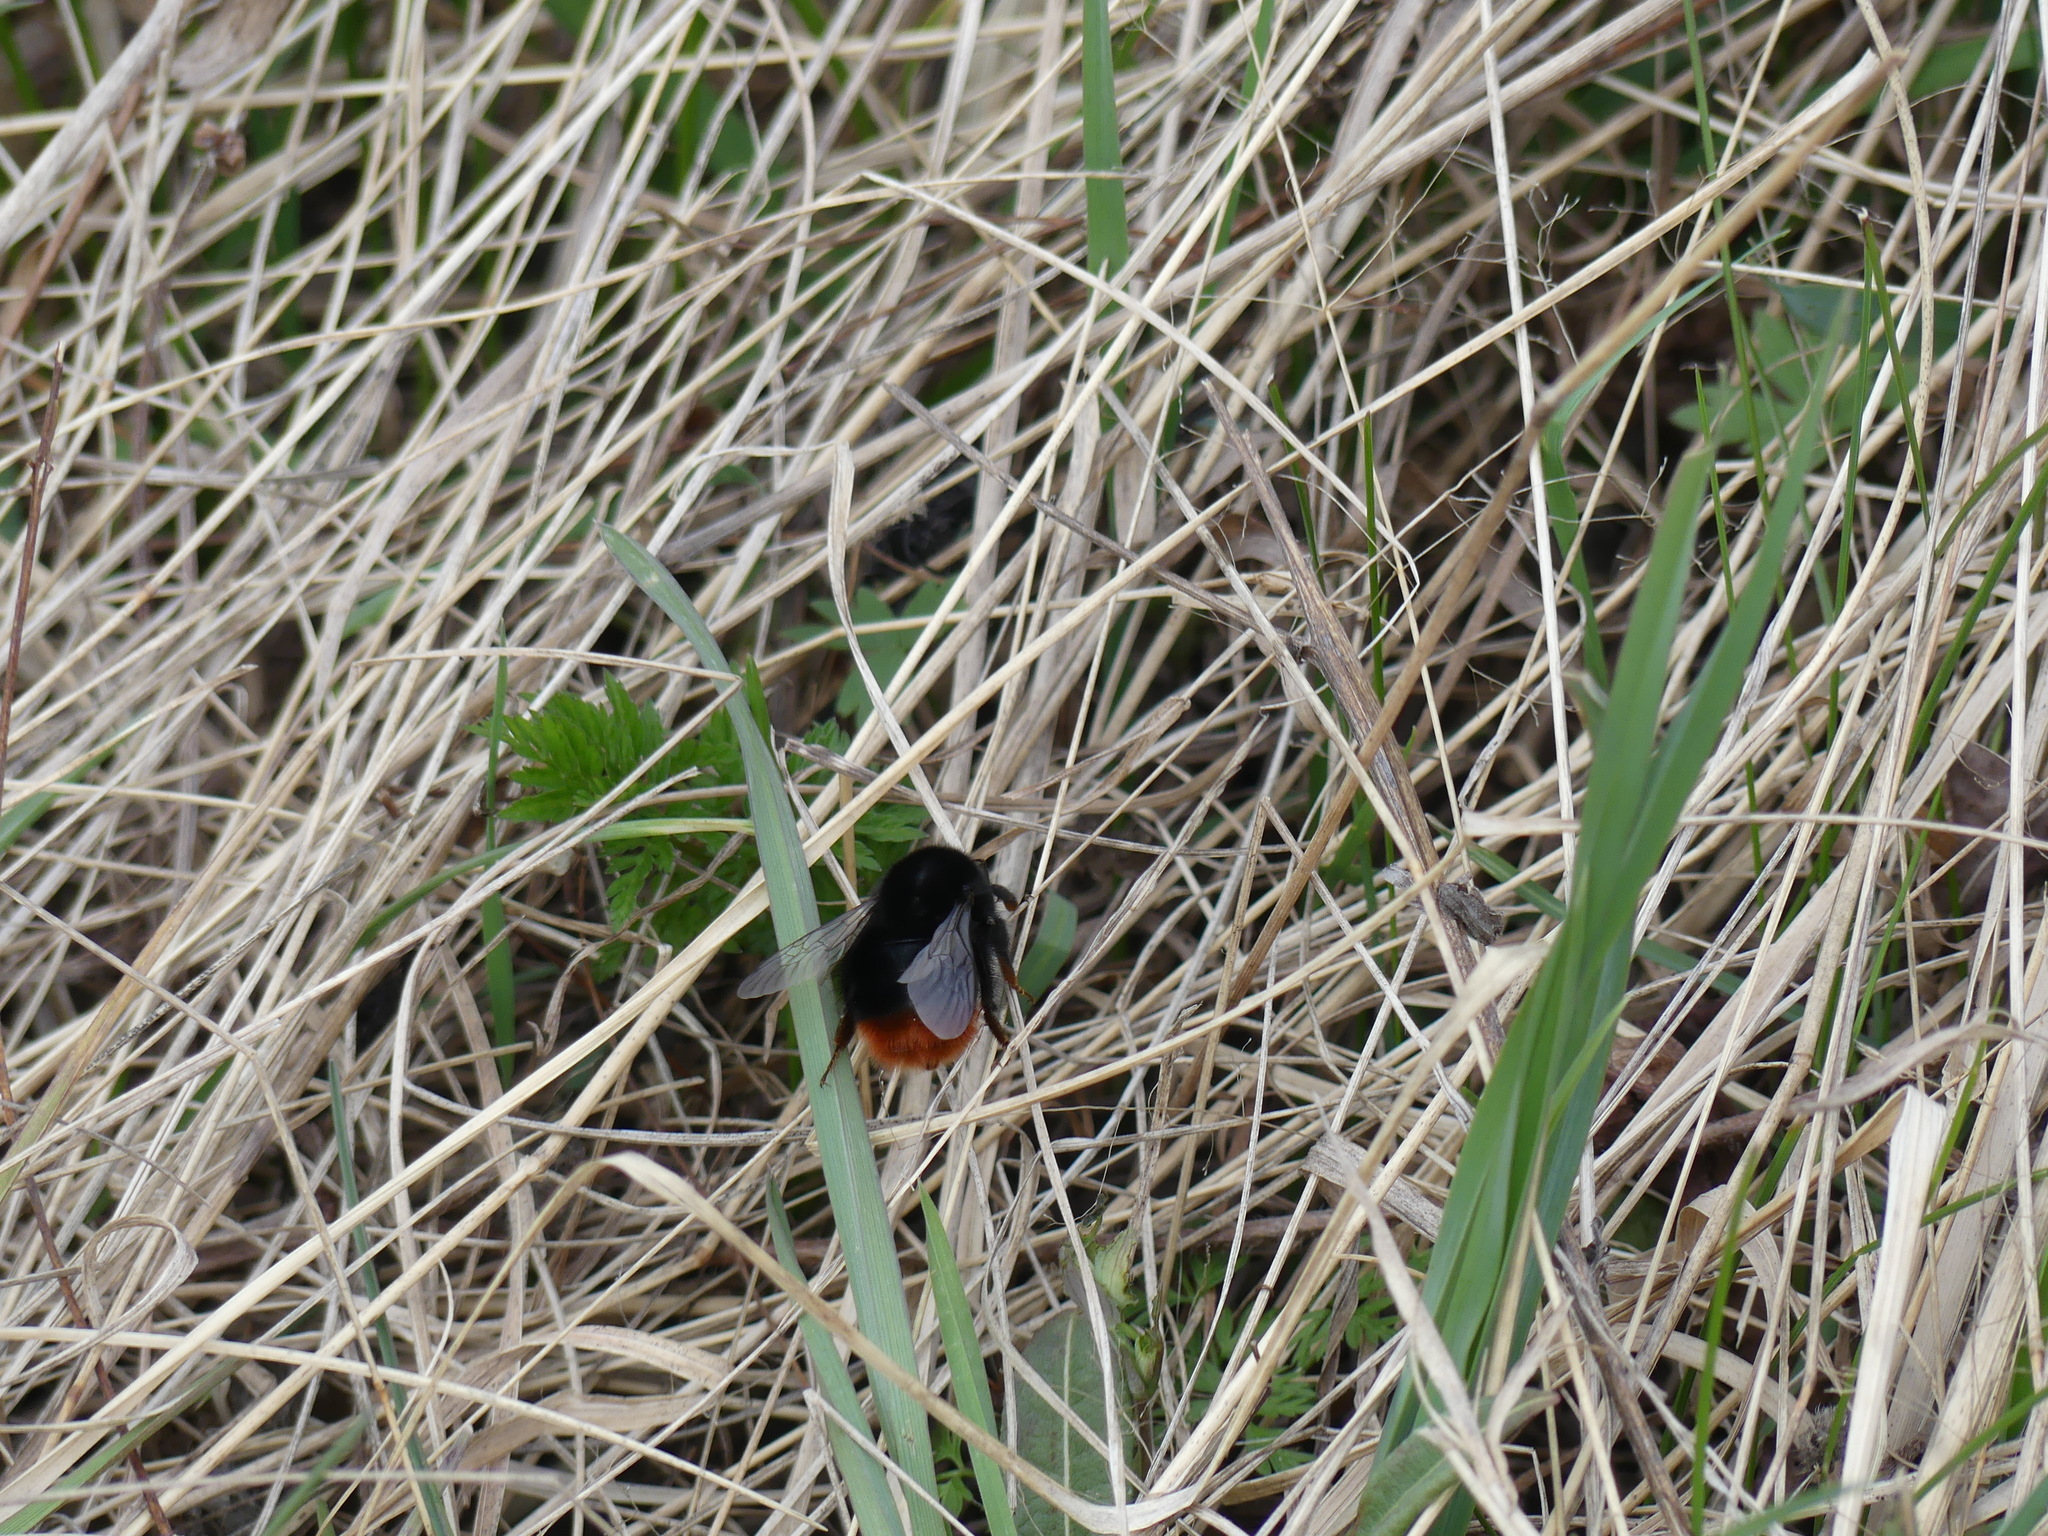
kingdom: Animalia
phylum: Arthropoda
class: Insecta
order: Hymenoptera
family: Apidae
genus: Bombus
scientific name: Bombus lapidarius
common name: Large red-tailed humble-bee
